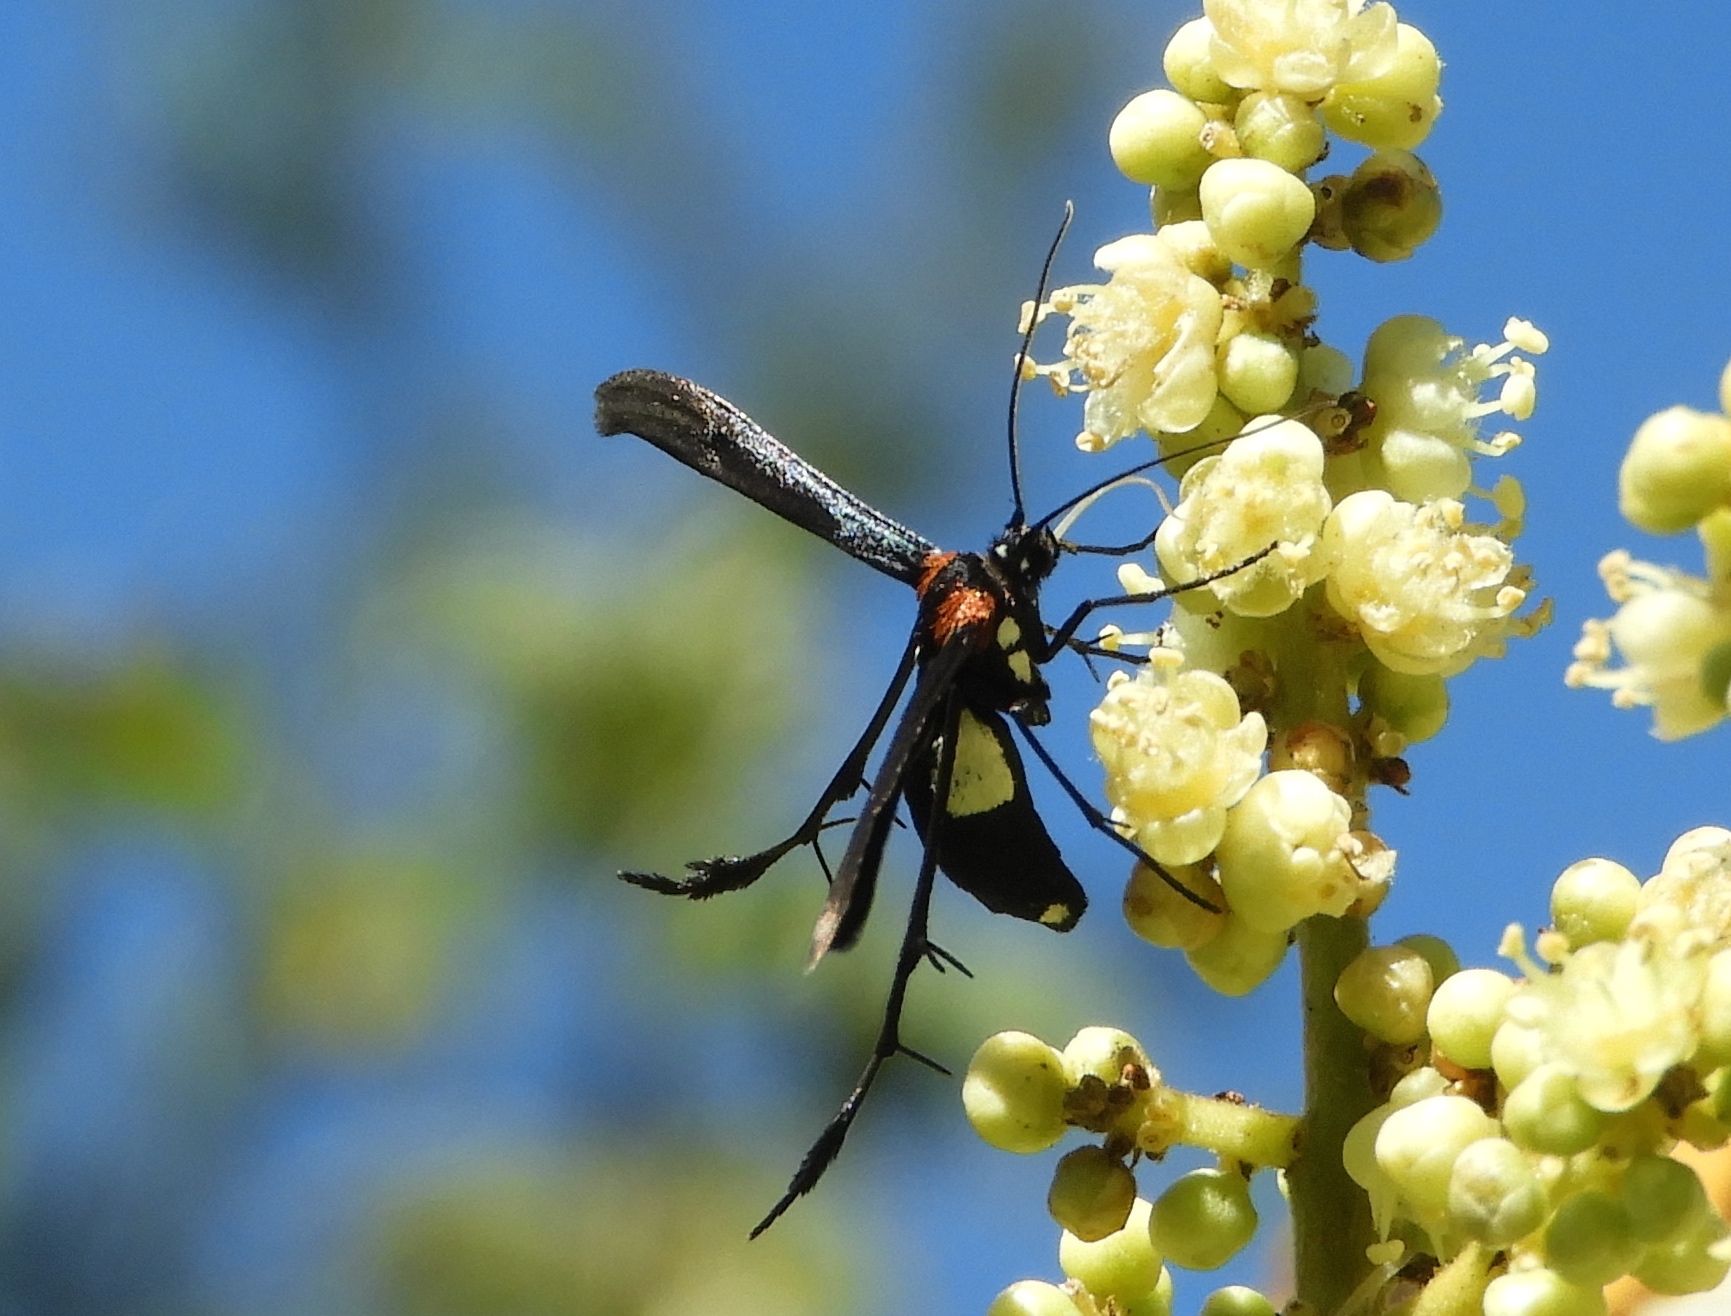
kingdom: Animalia
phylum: Arthropoda
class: Insecta
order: Lepidoptera
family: Pterophoridae
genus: Hellinsia
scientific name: Hellinsia chamelai
